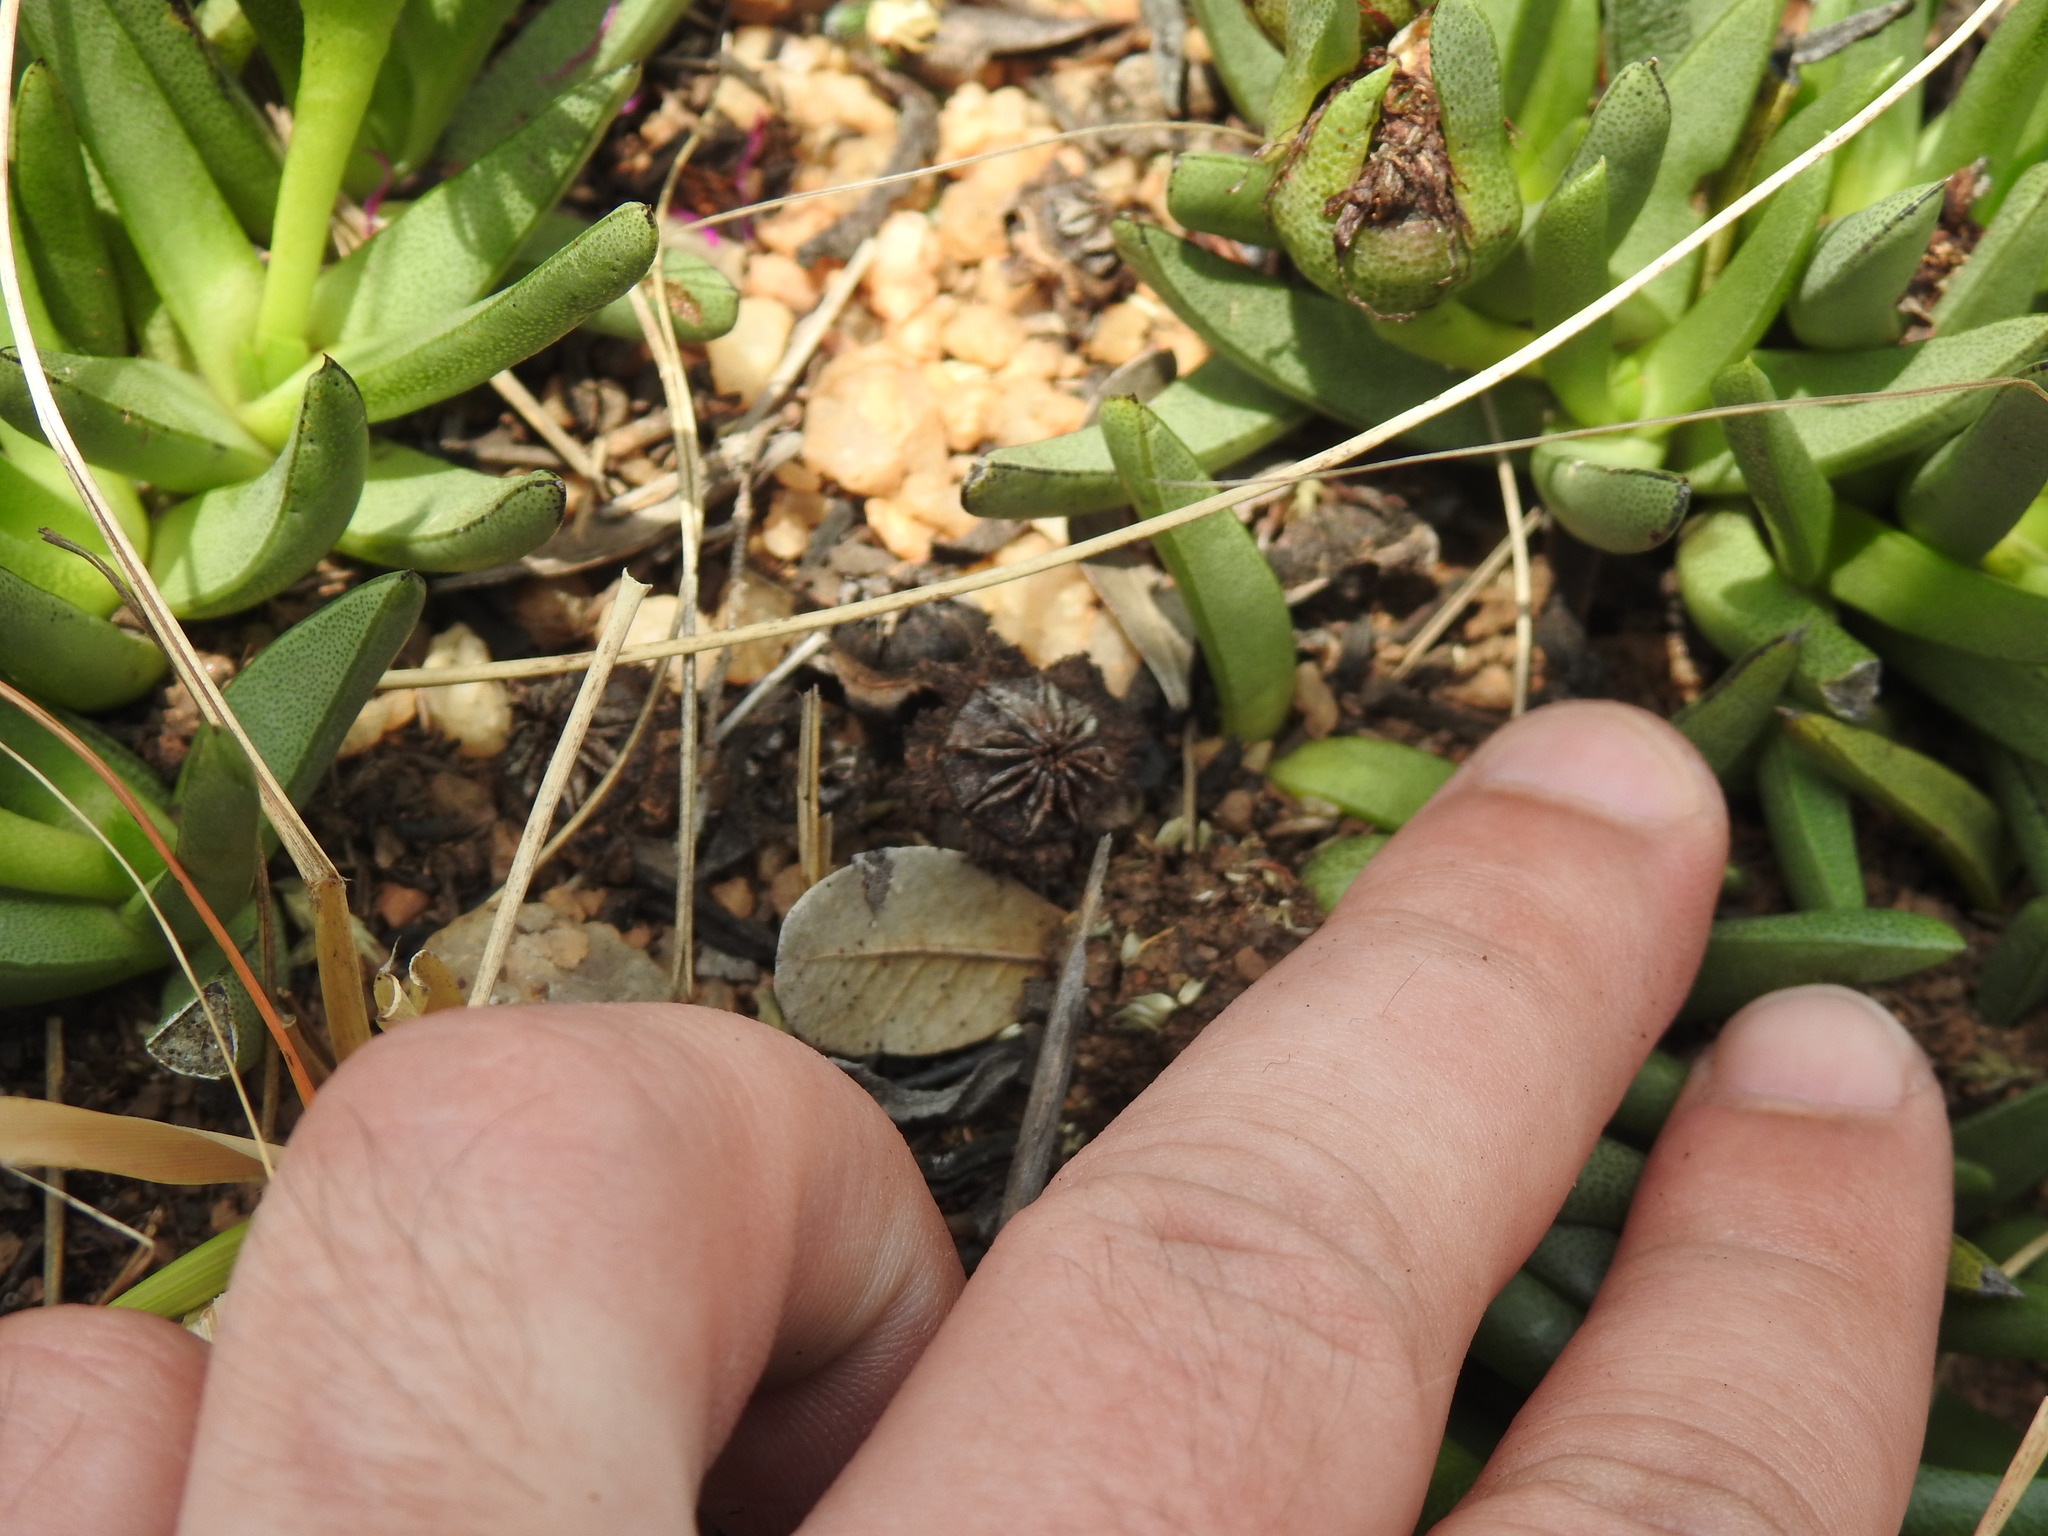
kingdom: Plantae
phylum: Tracheophyta
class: Magnoliopsida
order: Caryophyllales
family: Aizoaceae
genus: Khadia
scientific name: Khadia acutipetala
